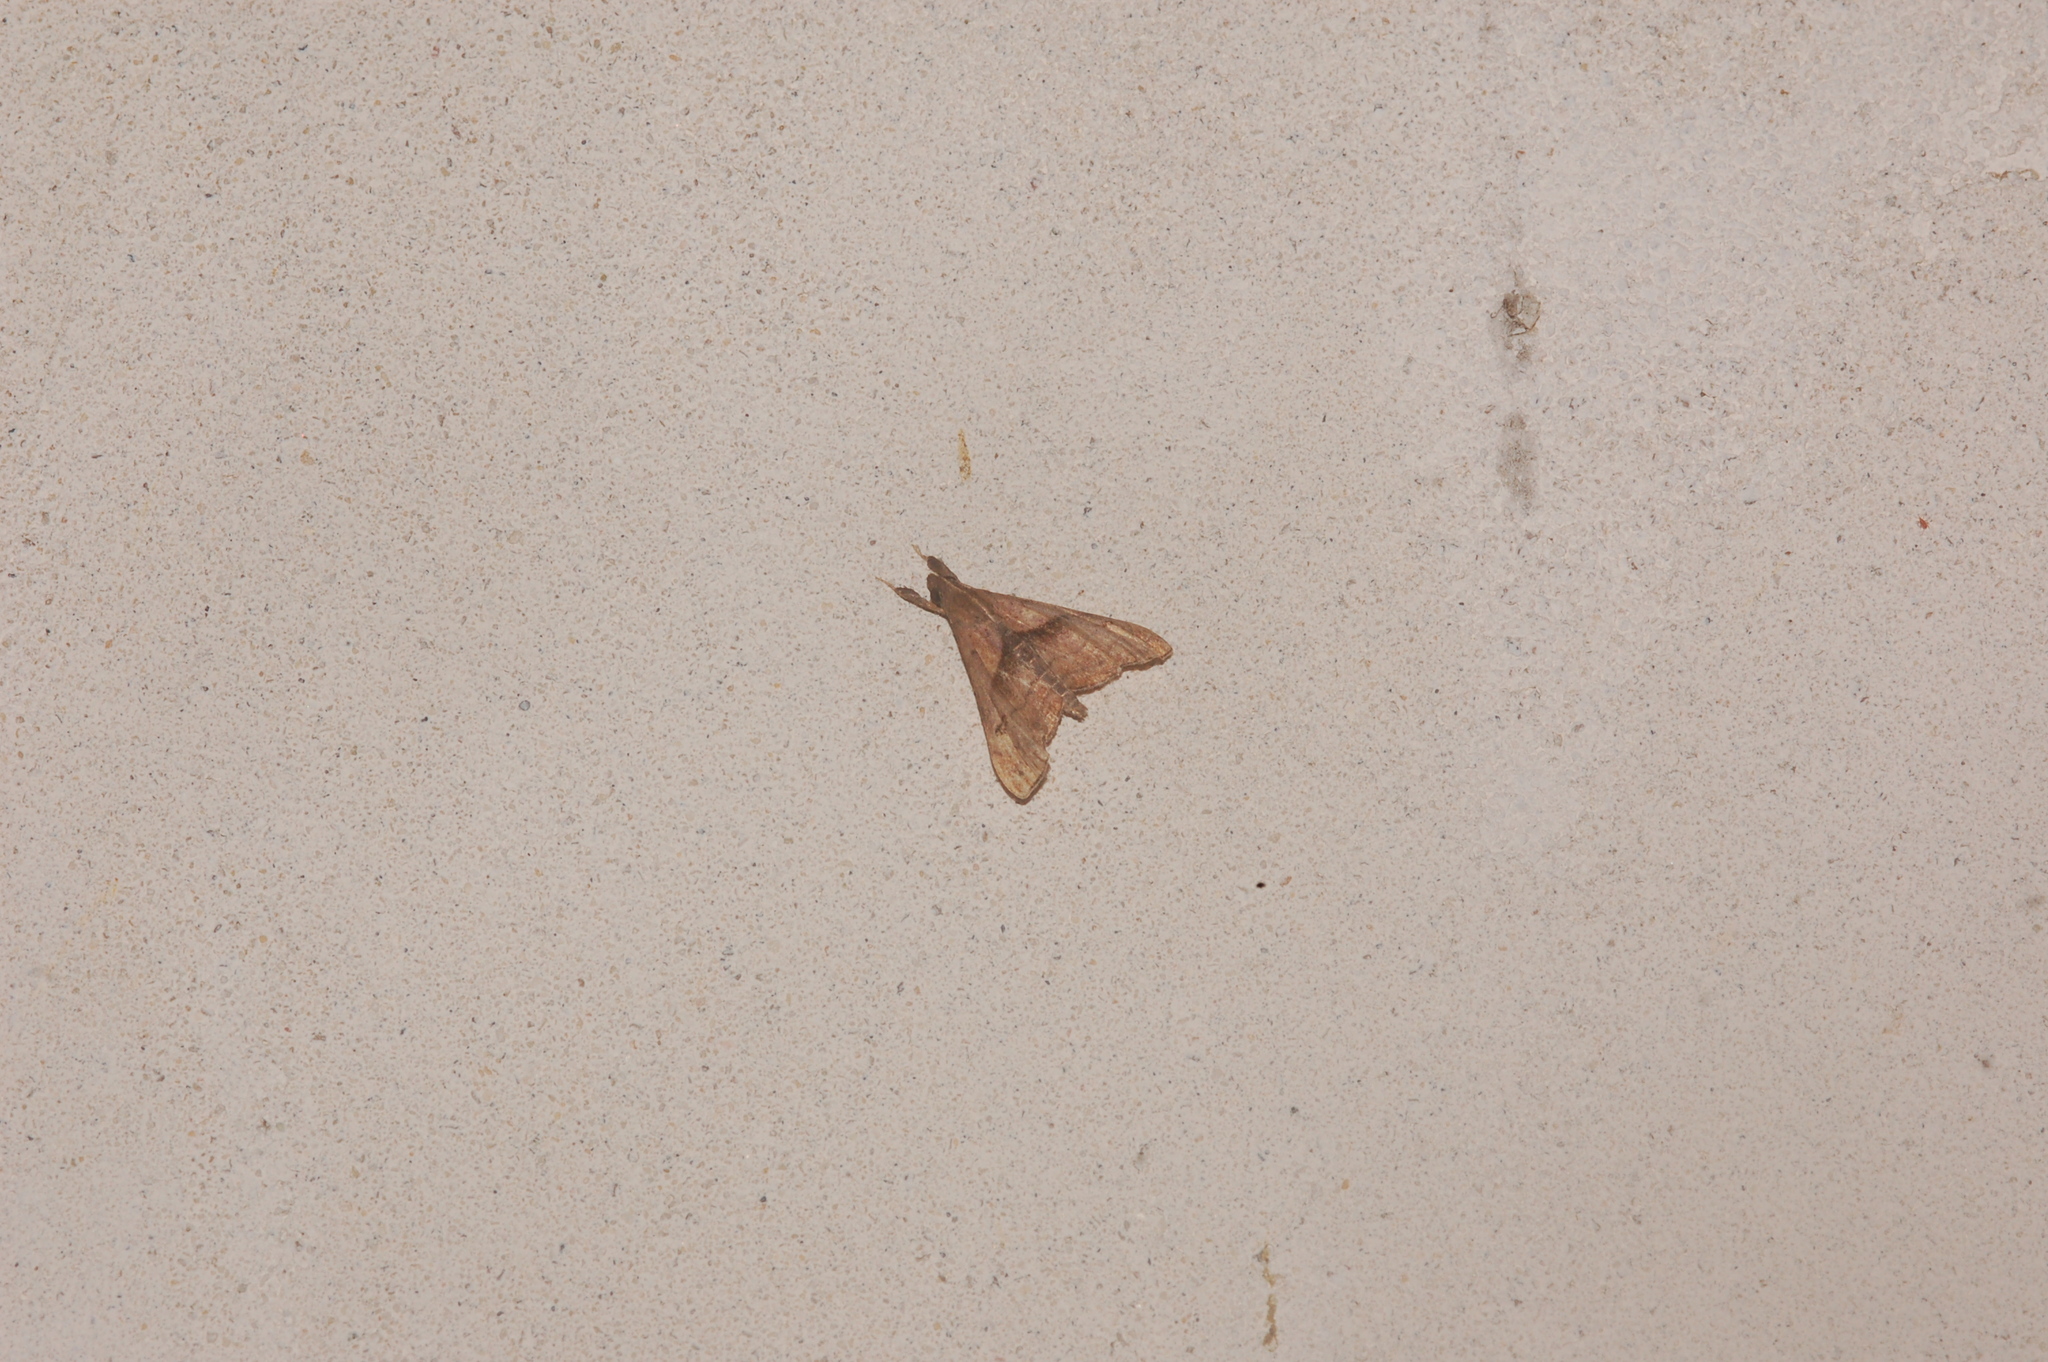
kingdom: Animalia
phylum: Arthropoda
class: Insecta
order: Lepidoptera
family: Erebidae
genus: Palthis
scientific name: Palthis angulalis
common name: Dark-spotted palthis moth
